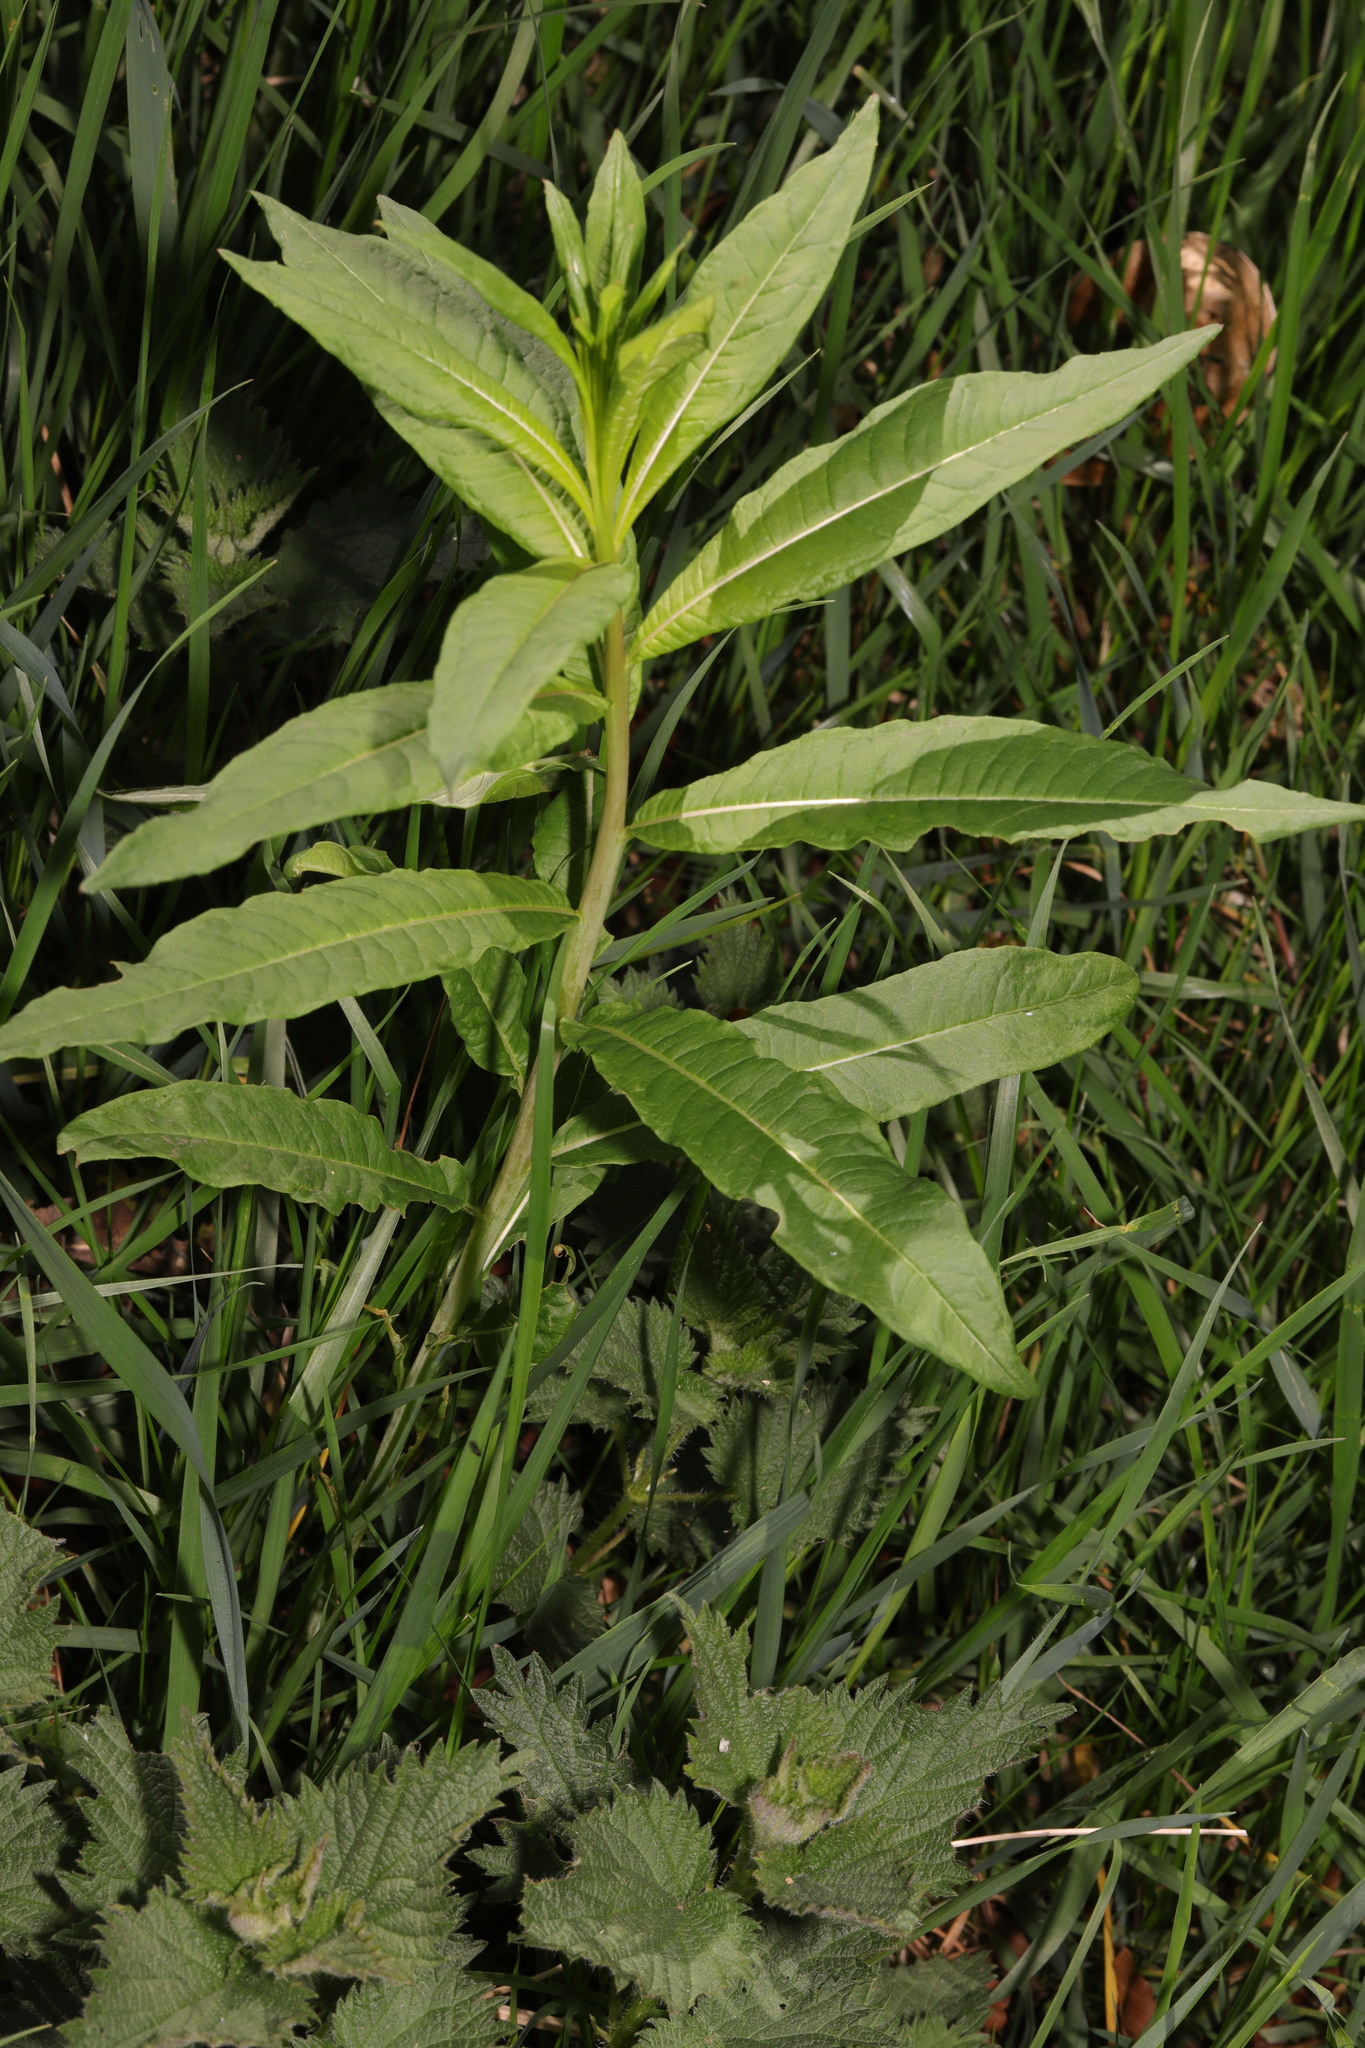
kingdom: Plantae
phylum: Tracheophyta
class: Magnoliopsida
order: Myrtales
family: Onagraceae
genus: Chamaenerion
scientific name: Chamaenerion angustifolium
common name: Fireweed
